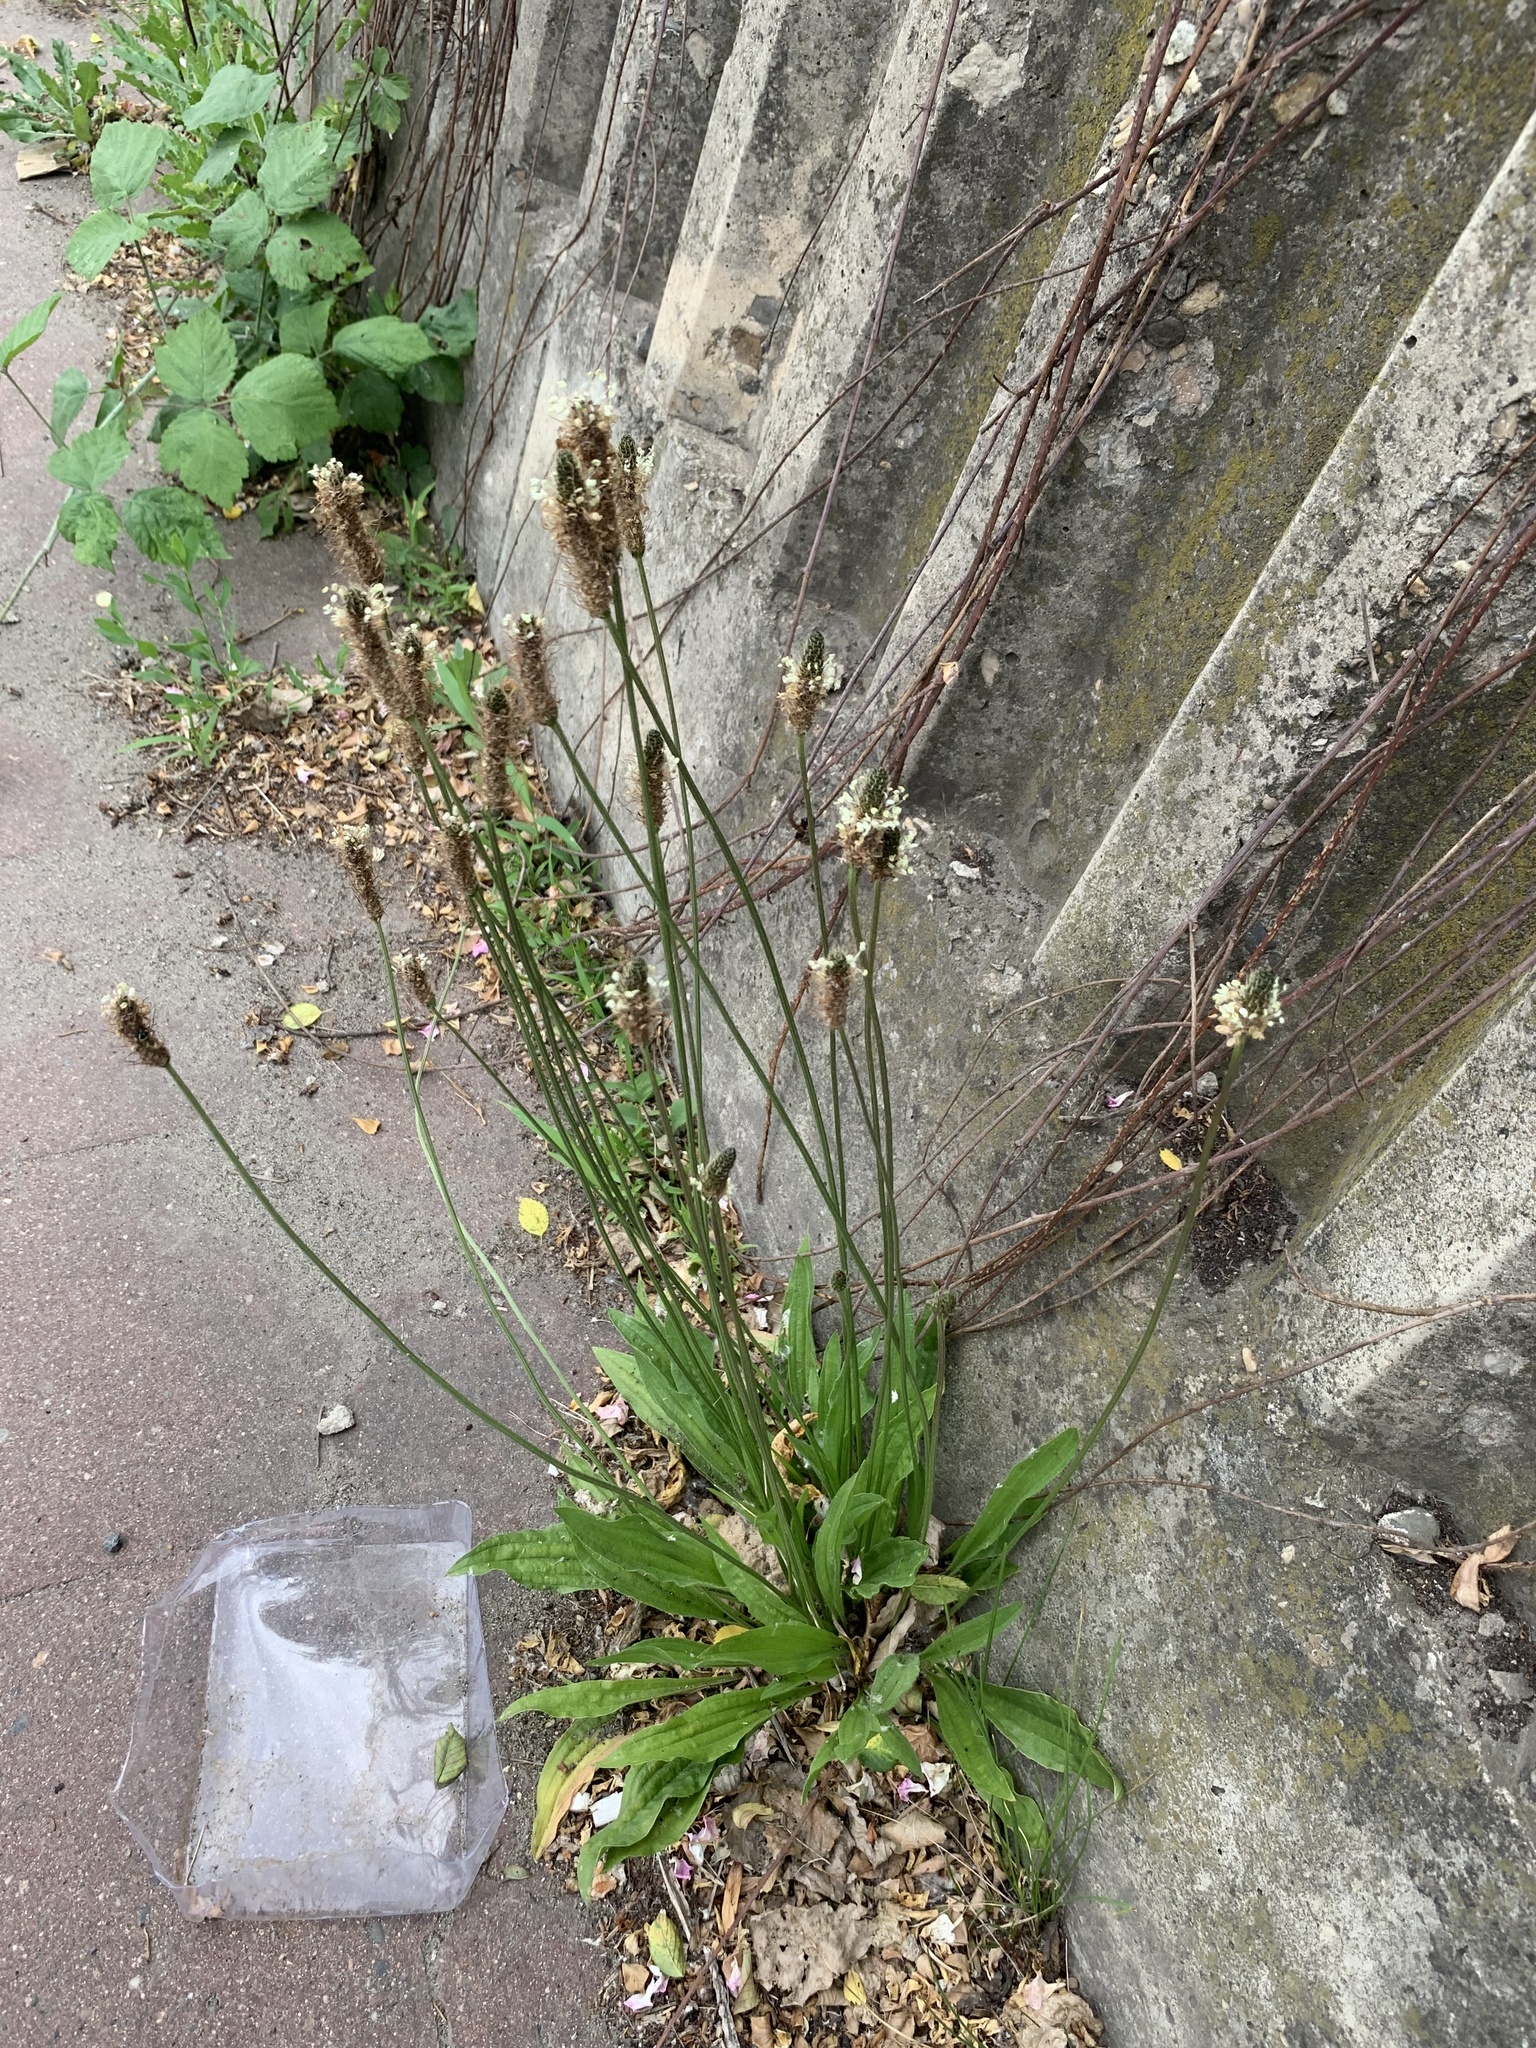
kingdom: Plantae
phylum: Tracheophyta
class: Magnoliopsida
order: Lamiales
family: Plantaginaceae
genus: Plantago
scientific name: Plantago lanceolata
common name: Ribwort plantain
